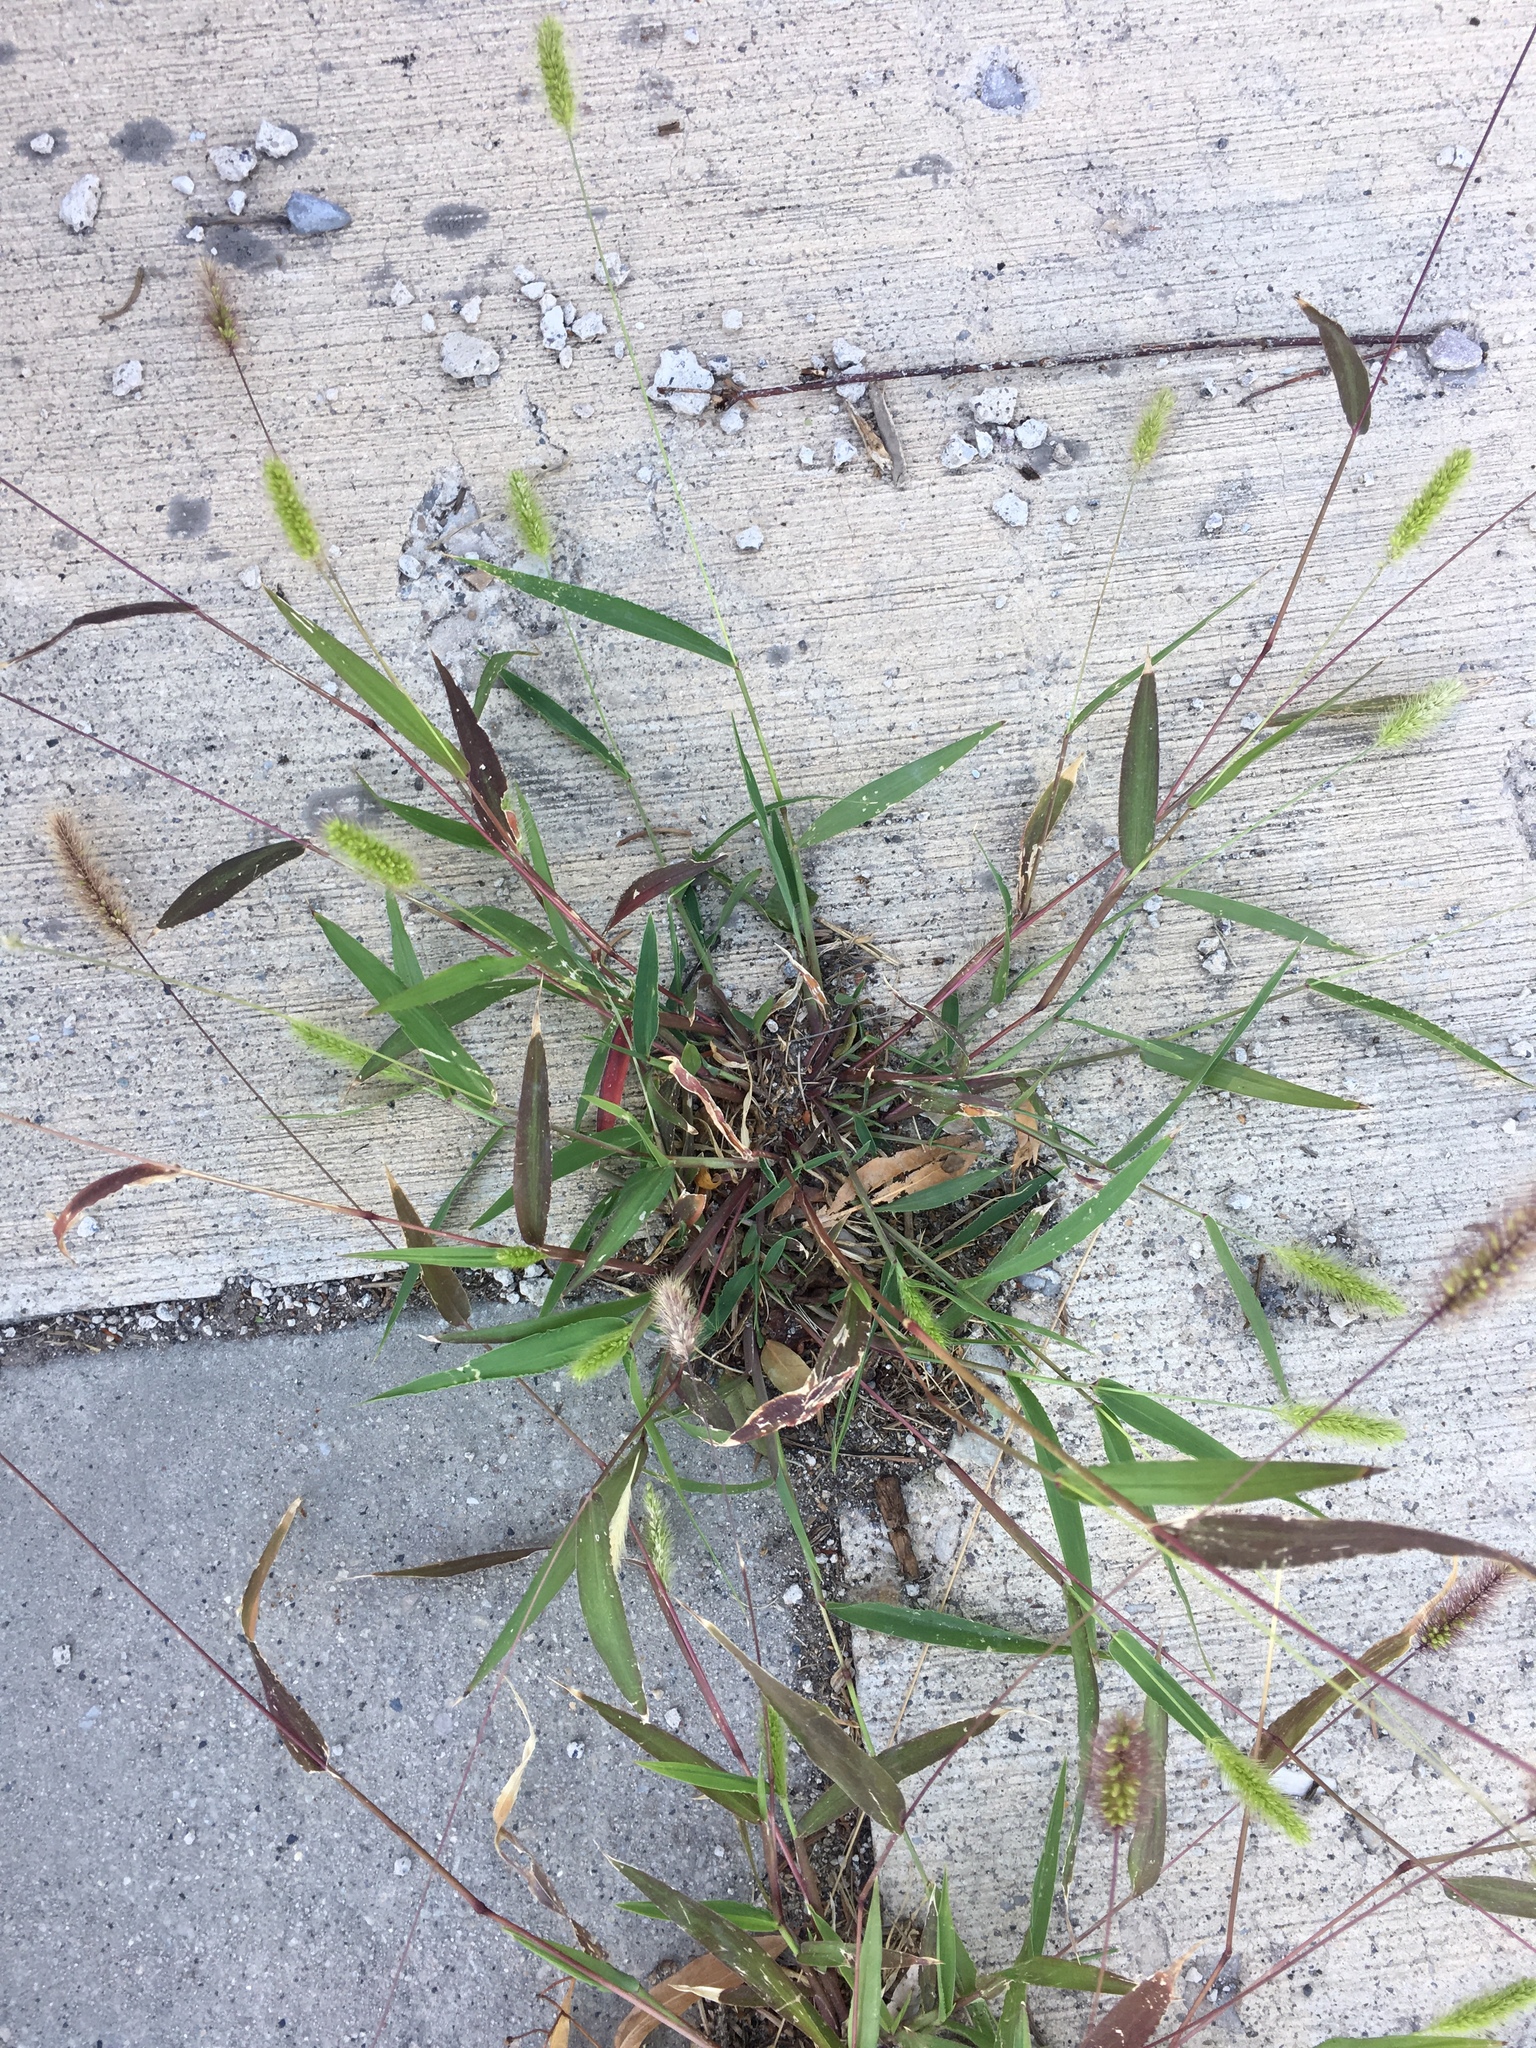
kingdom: Plantae
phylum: Tracheophyta
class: Liliopsida
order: Poales
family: Poaceae
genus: Setaria
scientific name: Setaria viridis
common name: Green bristlegrass
